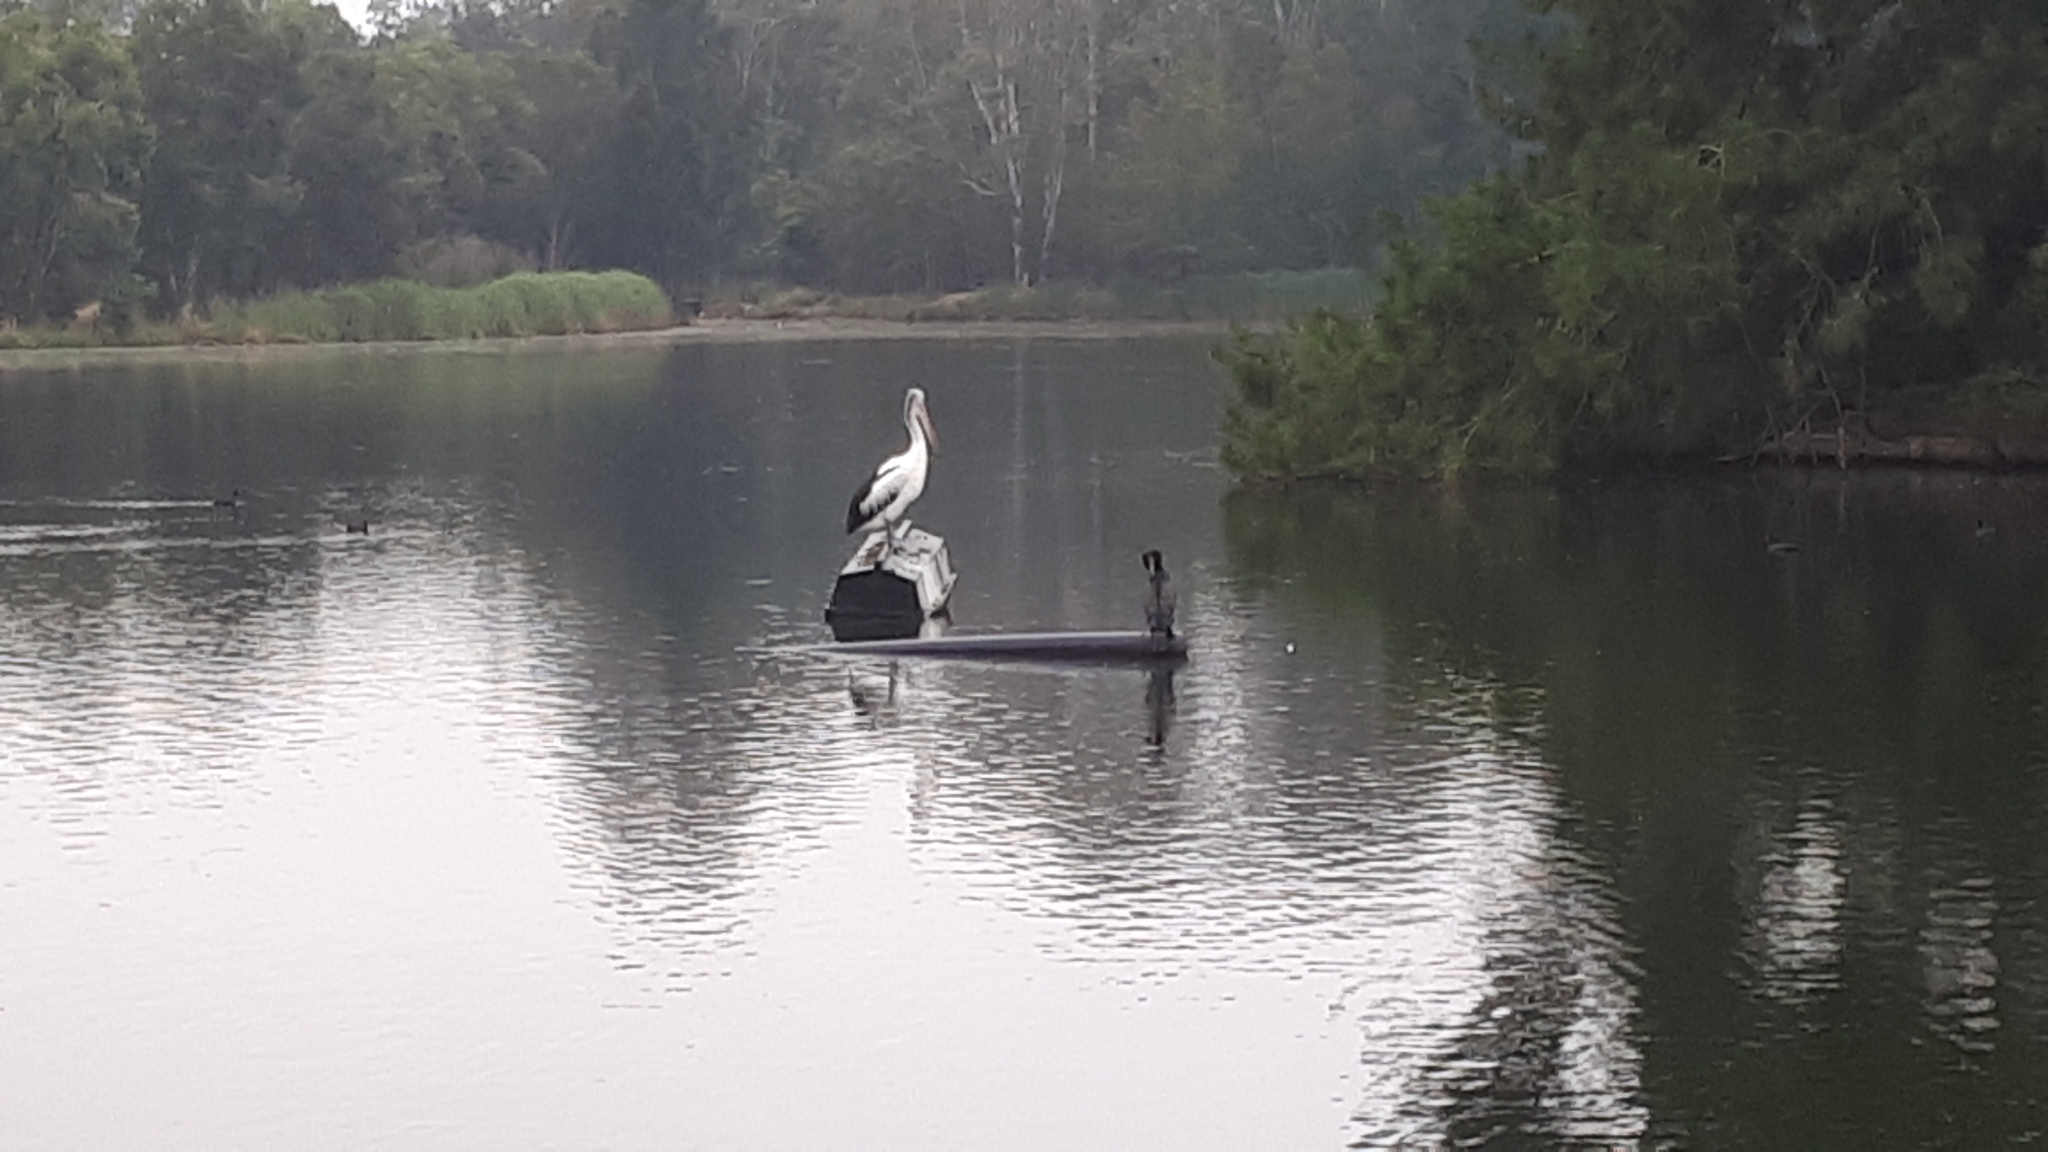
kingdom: Animalia
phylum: Chordata
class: Aves
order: Pelecaniformes
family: Pelecanidae
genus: Pelecanus
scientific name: Pelecanus conspicillatus
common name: Australian pelican
